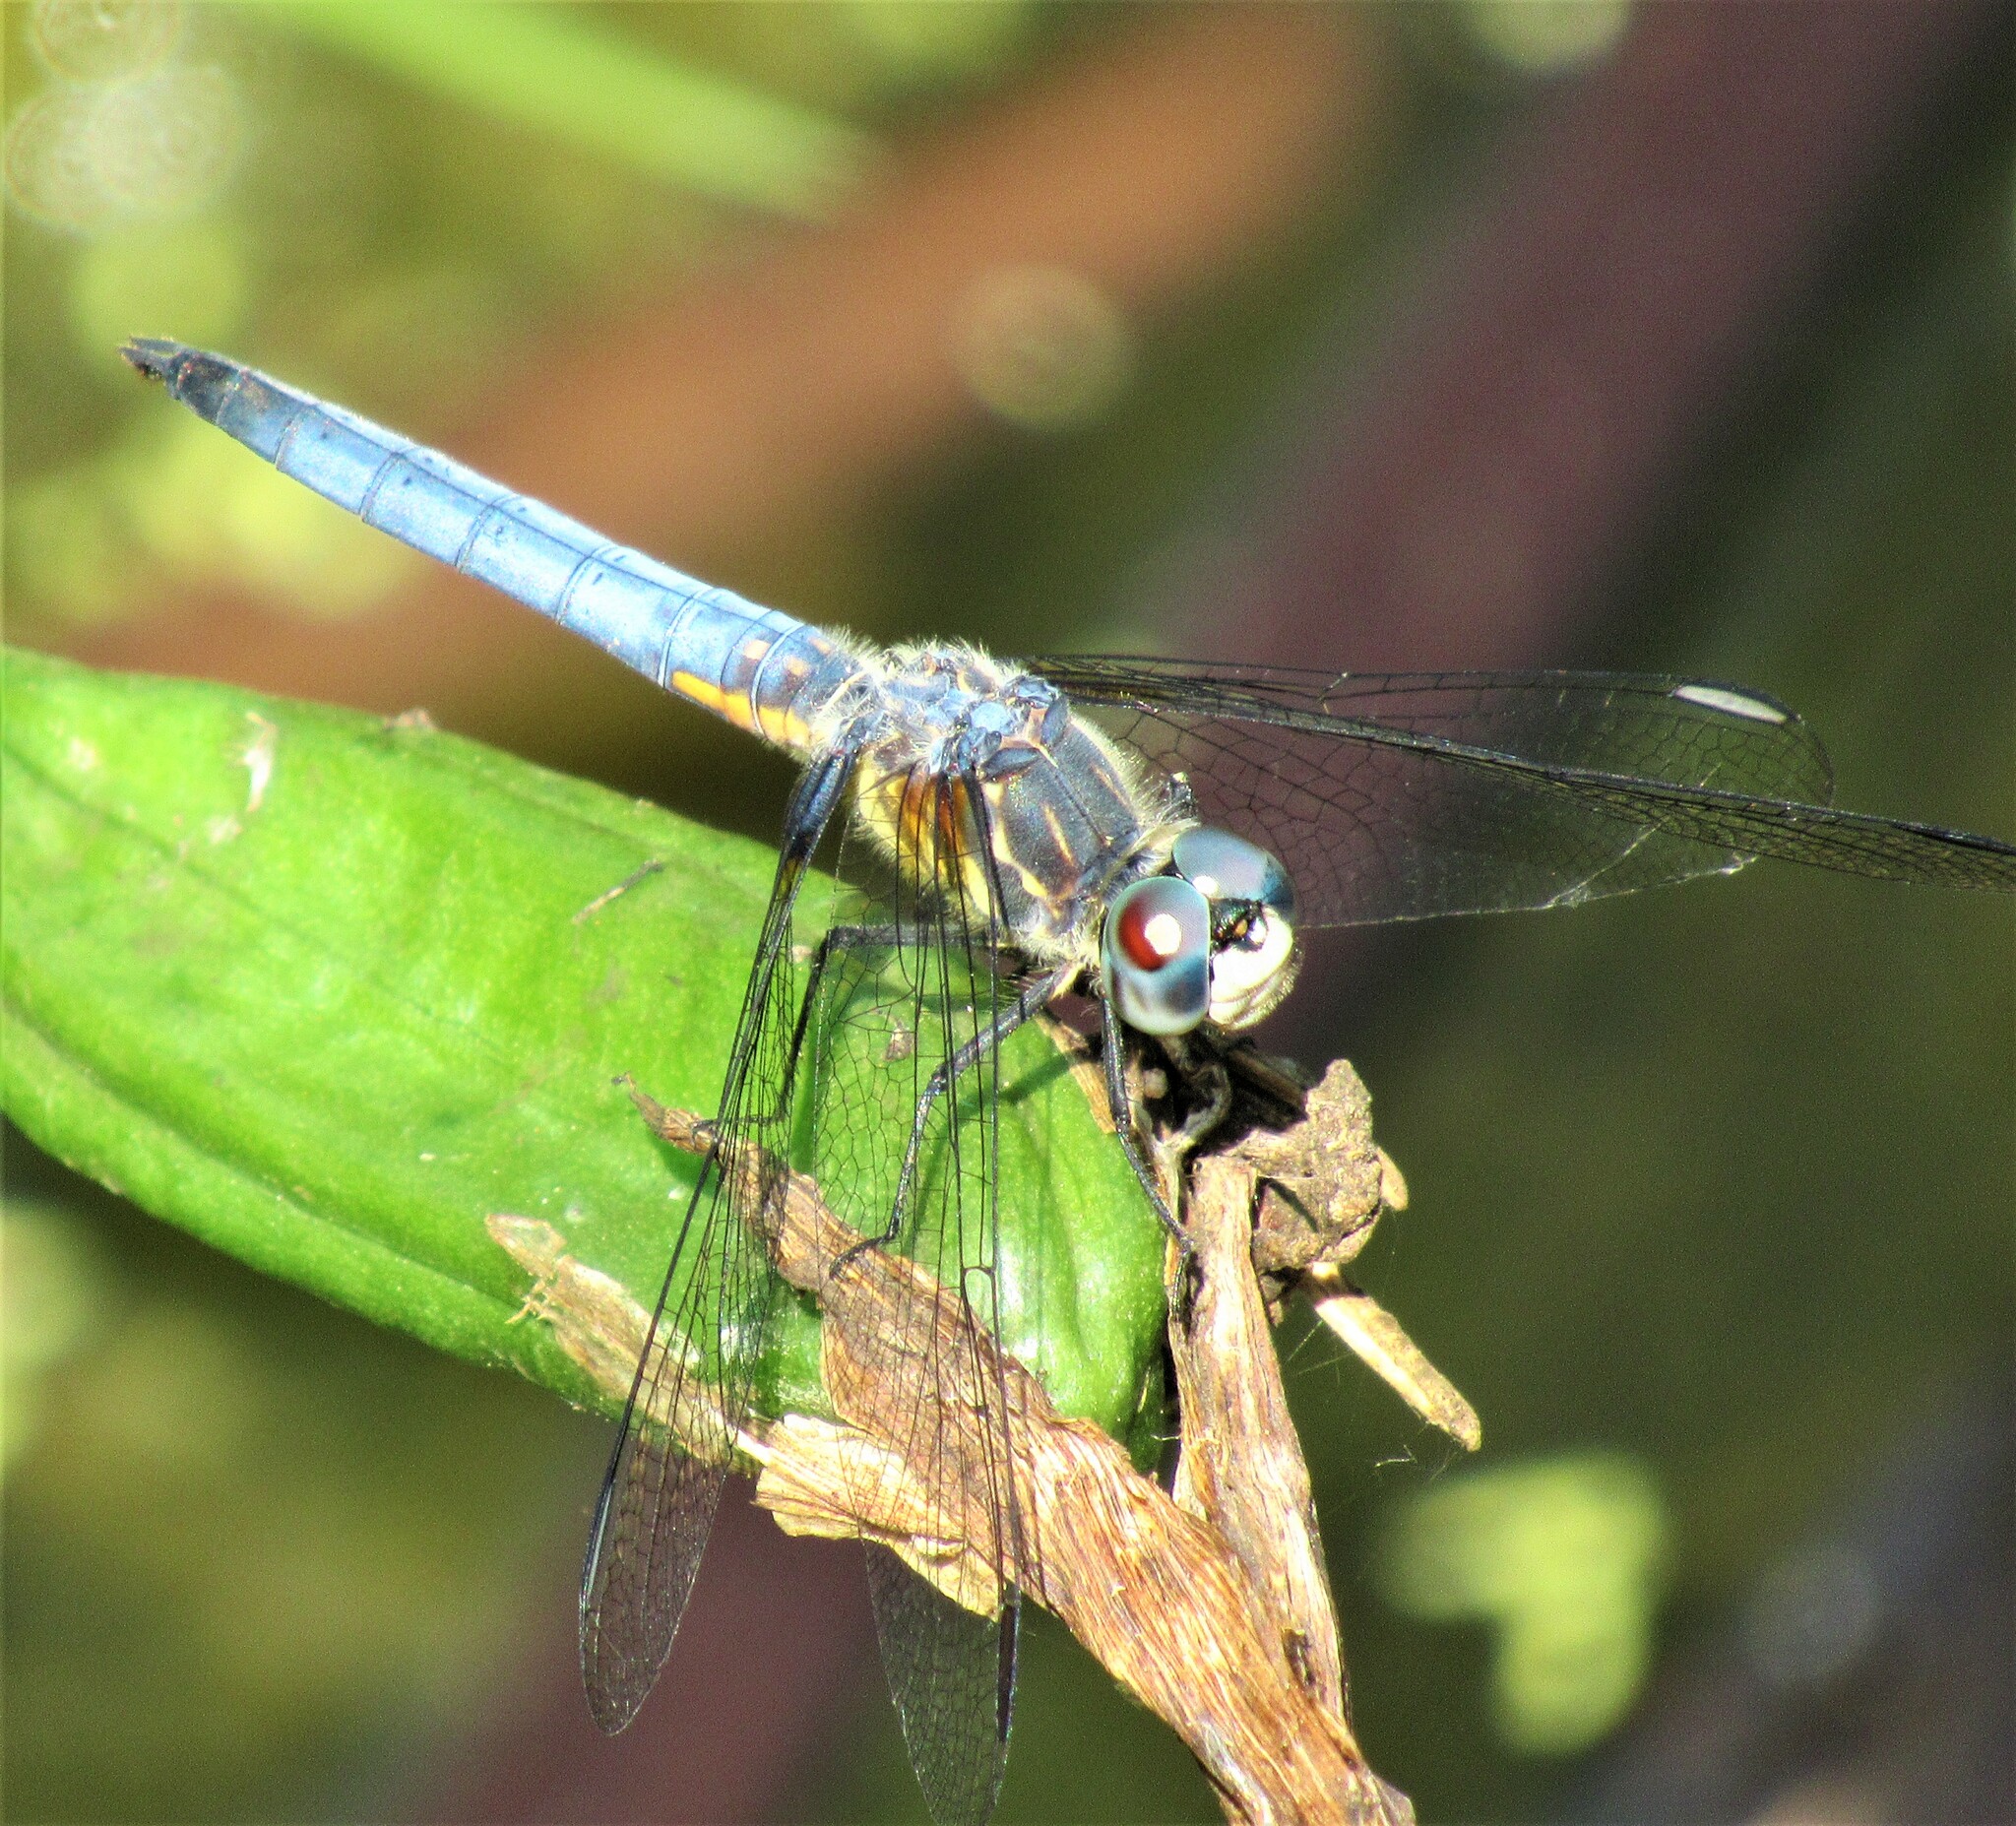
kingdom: Animalia
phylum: Arthropoda
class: Insecta
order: Odonata
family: Libellulidae
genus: Pachydiplax
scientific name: Pachydiplax longipennis
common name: Blue dasher
